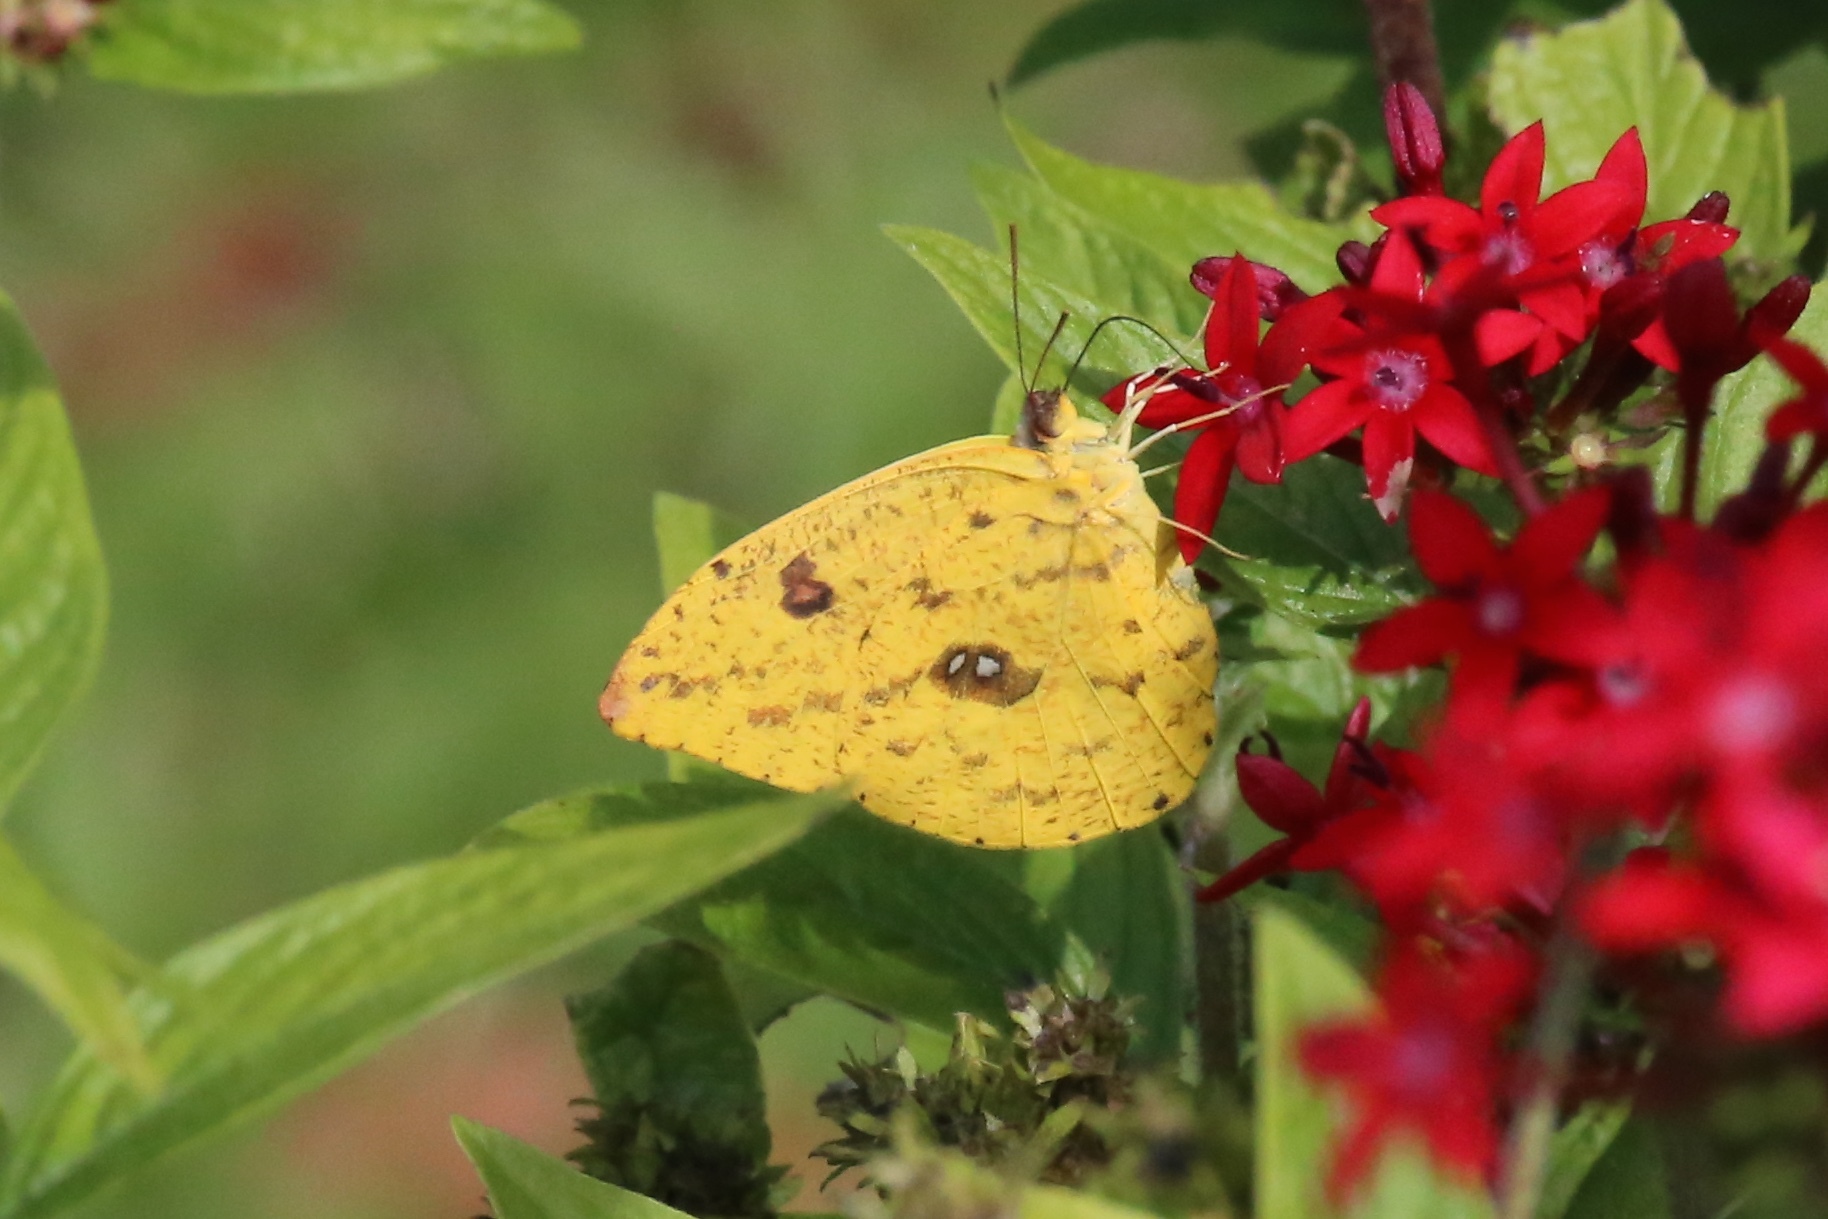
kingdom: Animalia
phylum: Arthropoda
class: Insecta
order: Lepidoptera
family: Pieridae
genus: Phoebis
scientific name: Phoebis argante
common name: Apricot sulphur
